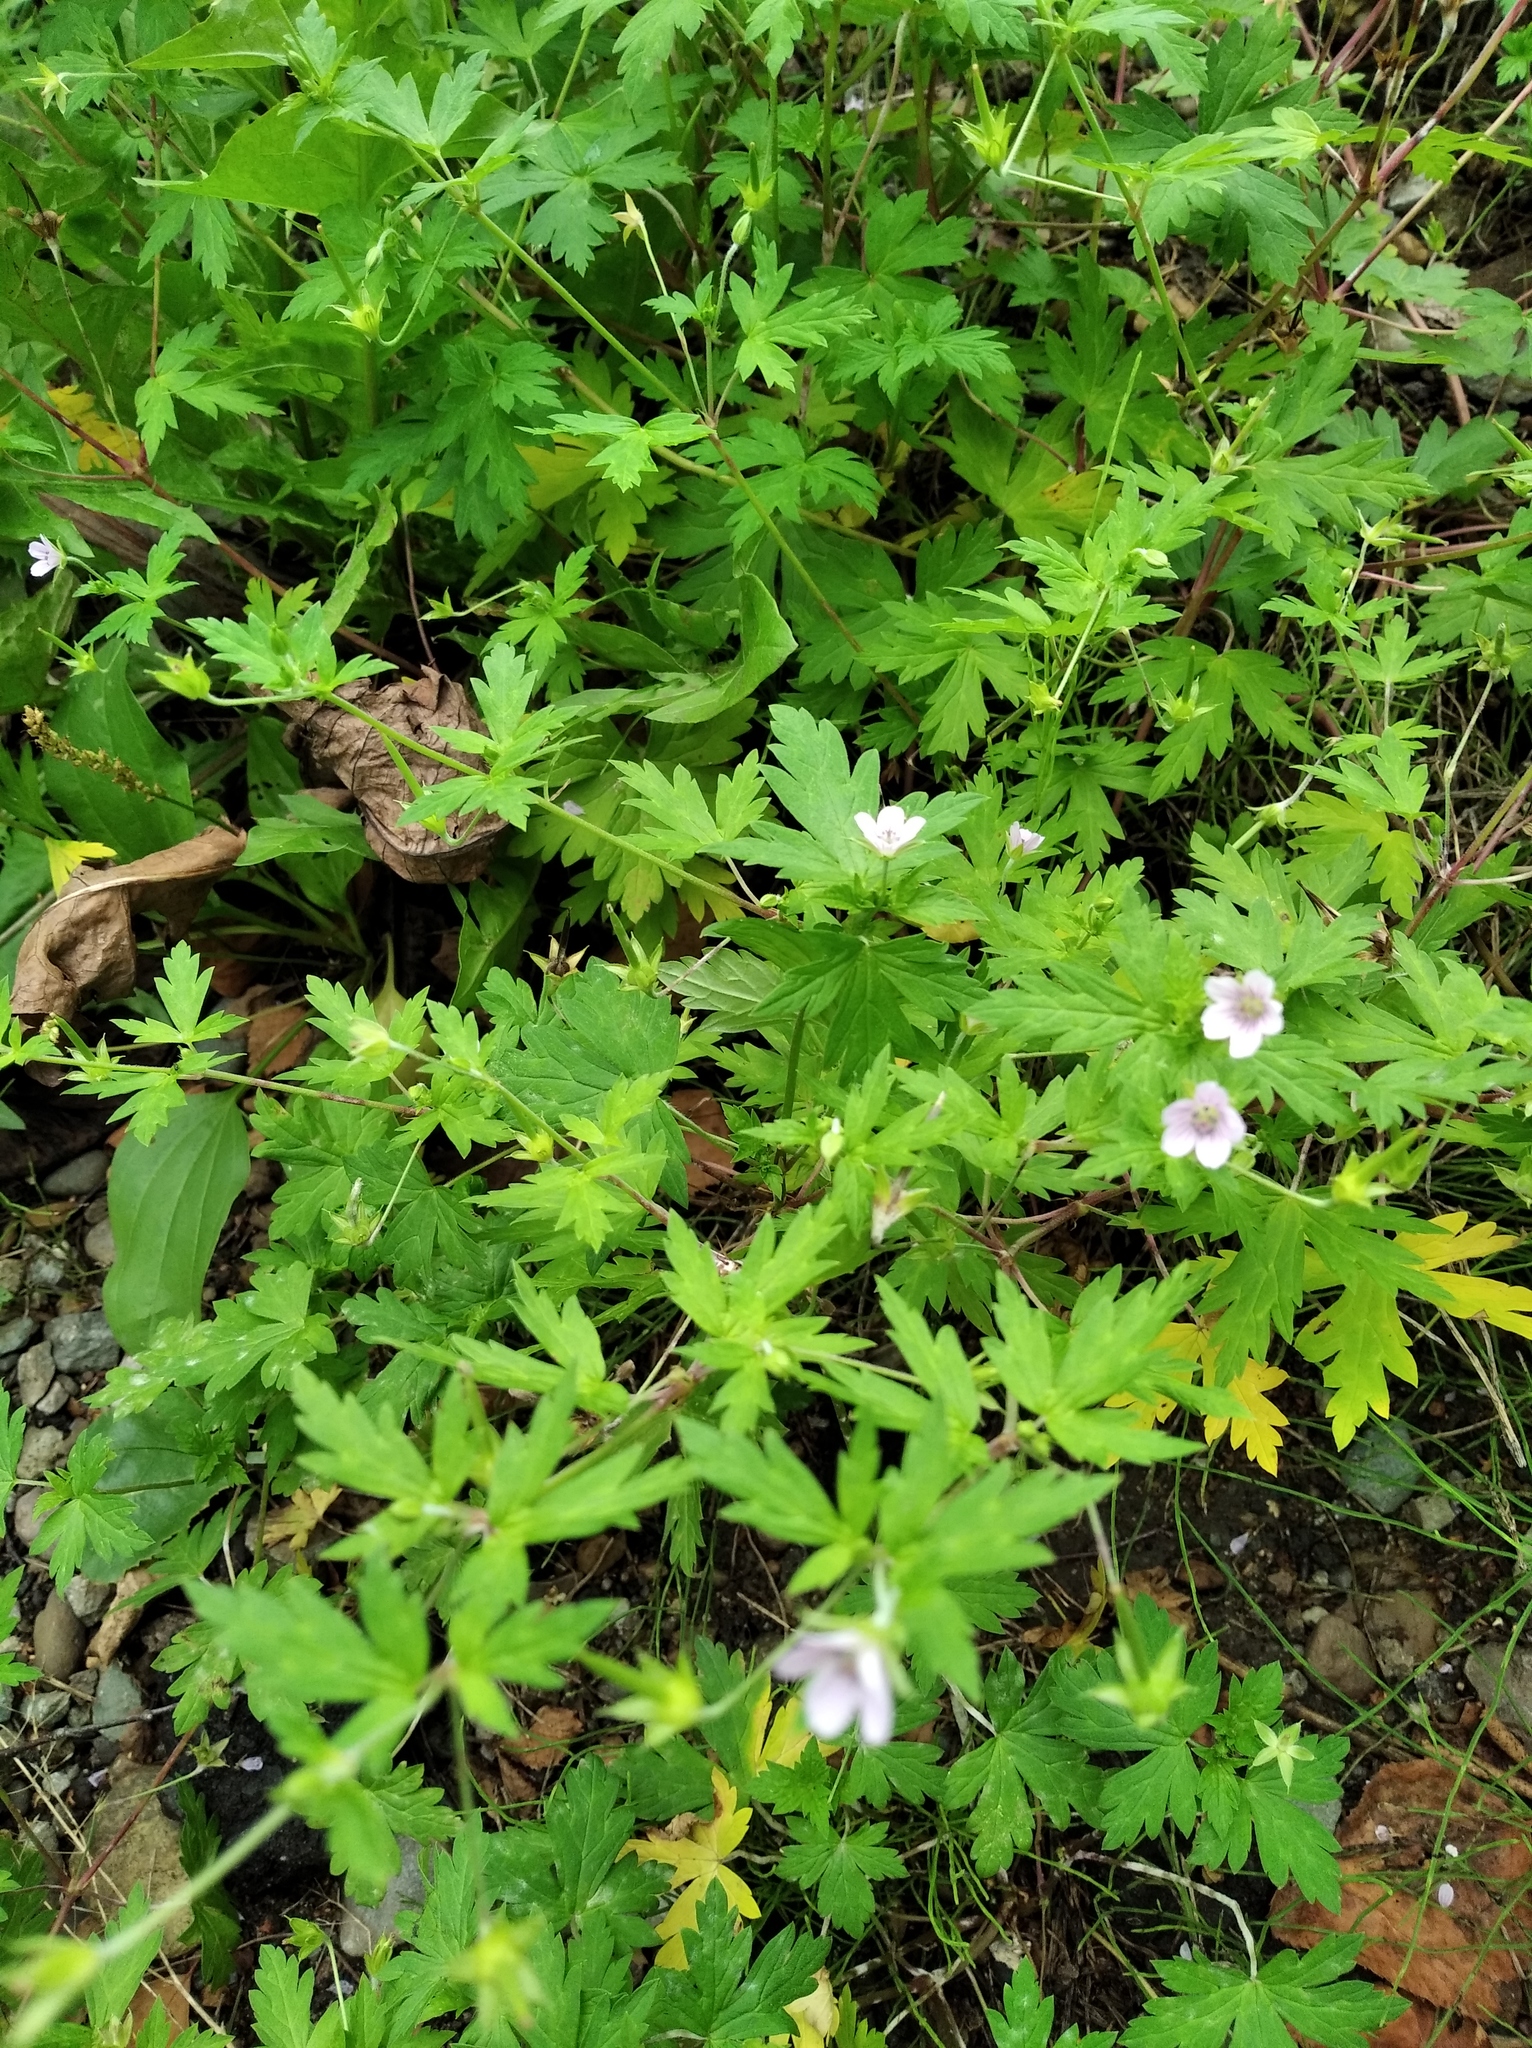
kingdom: Plantae
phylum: Tracheophyta
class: Magnoliopsida
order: Geraniales
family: Geraniaceae
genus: Geranium
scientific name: Geranium sibiricum
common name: Siberian crane's-bill
